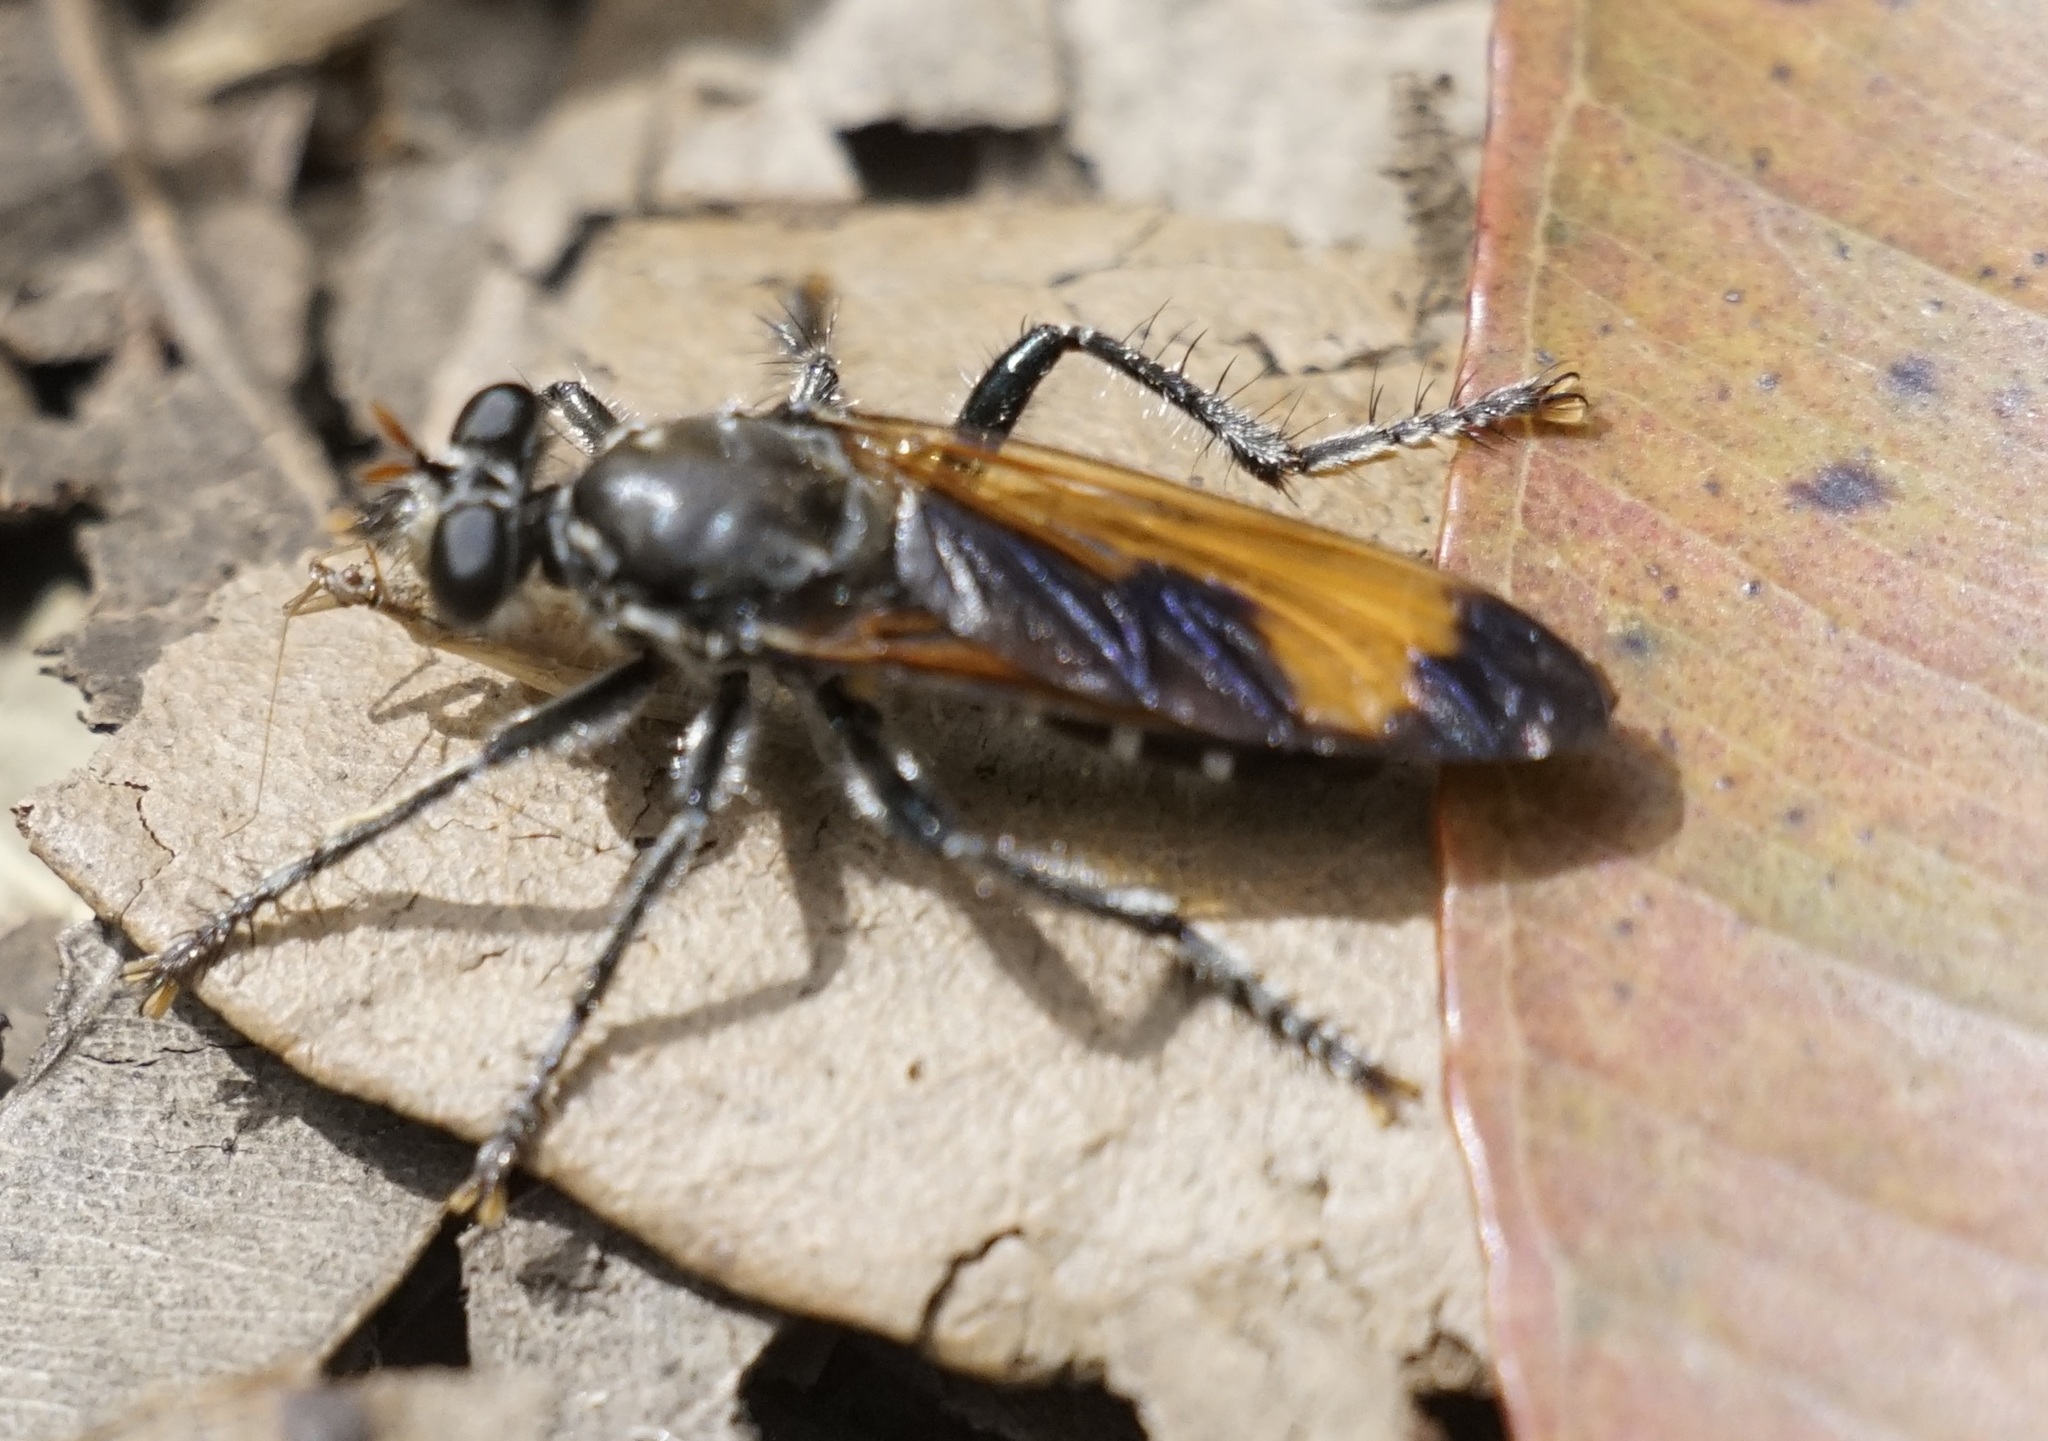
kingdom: Animalia
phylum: Arthropoda
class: Insecta
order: Diptera
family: Asilidae
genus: Orthogonis
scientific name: Orthogonis ornatipennis
